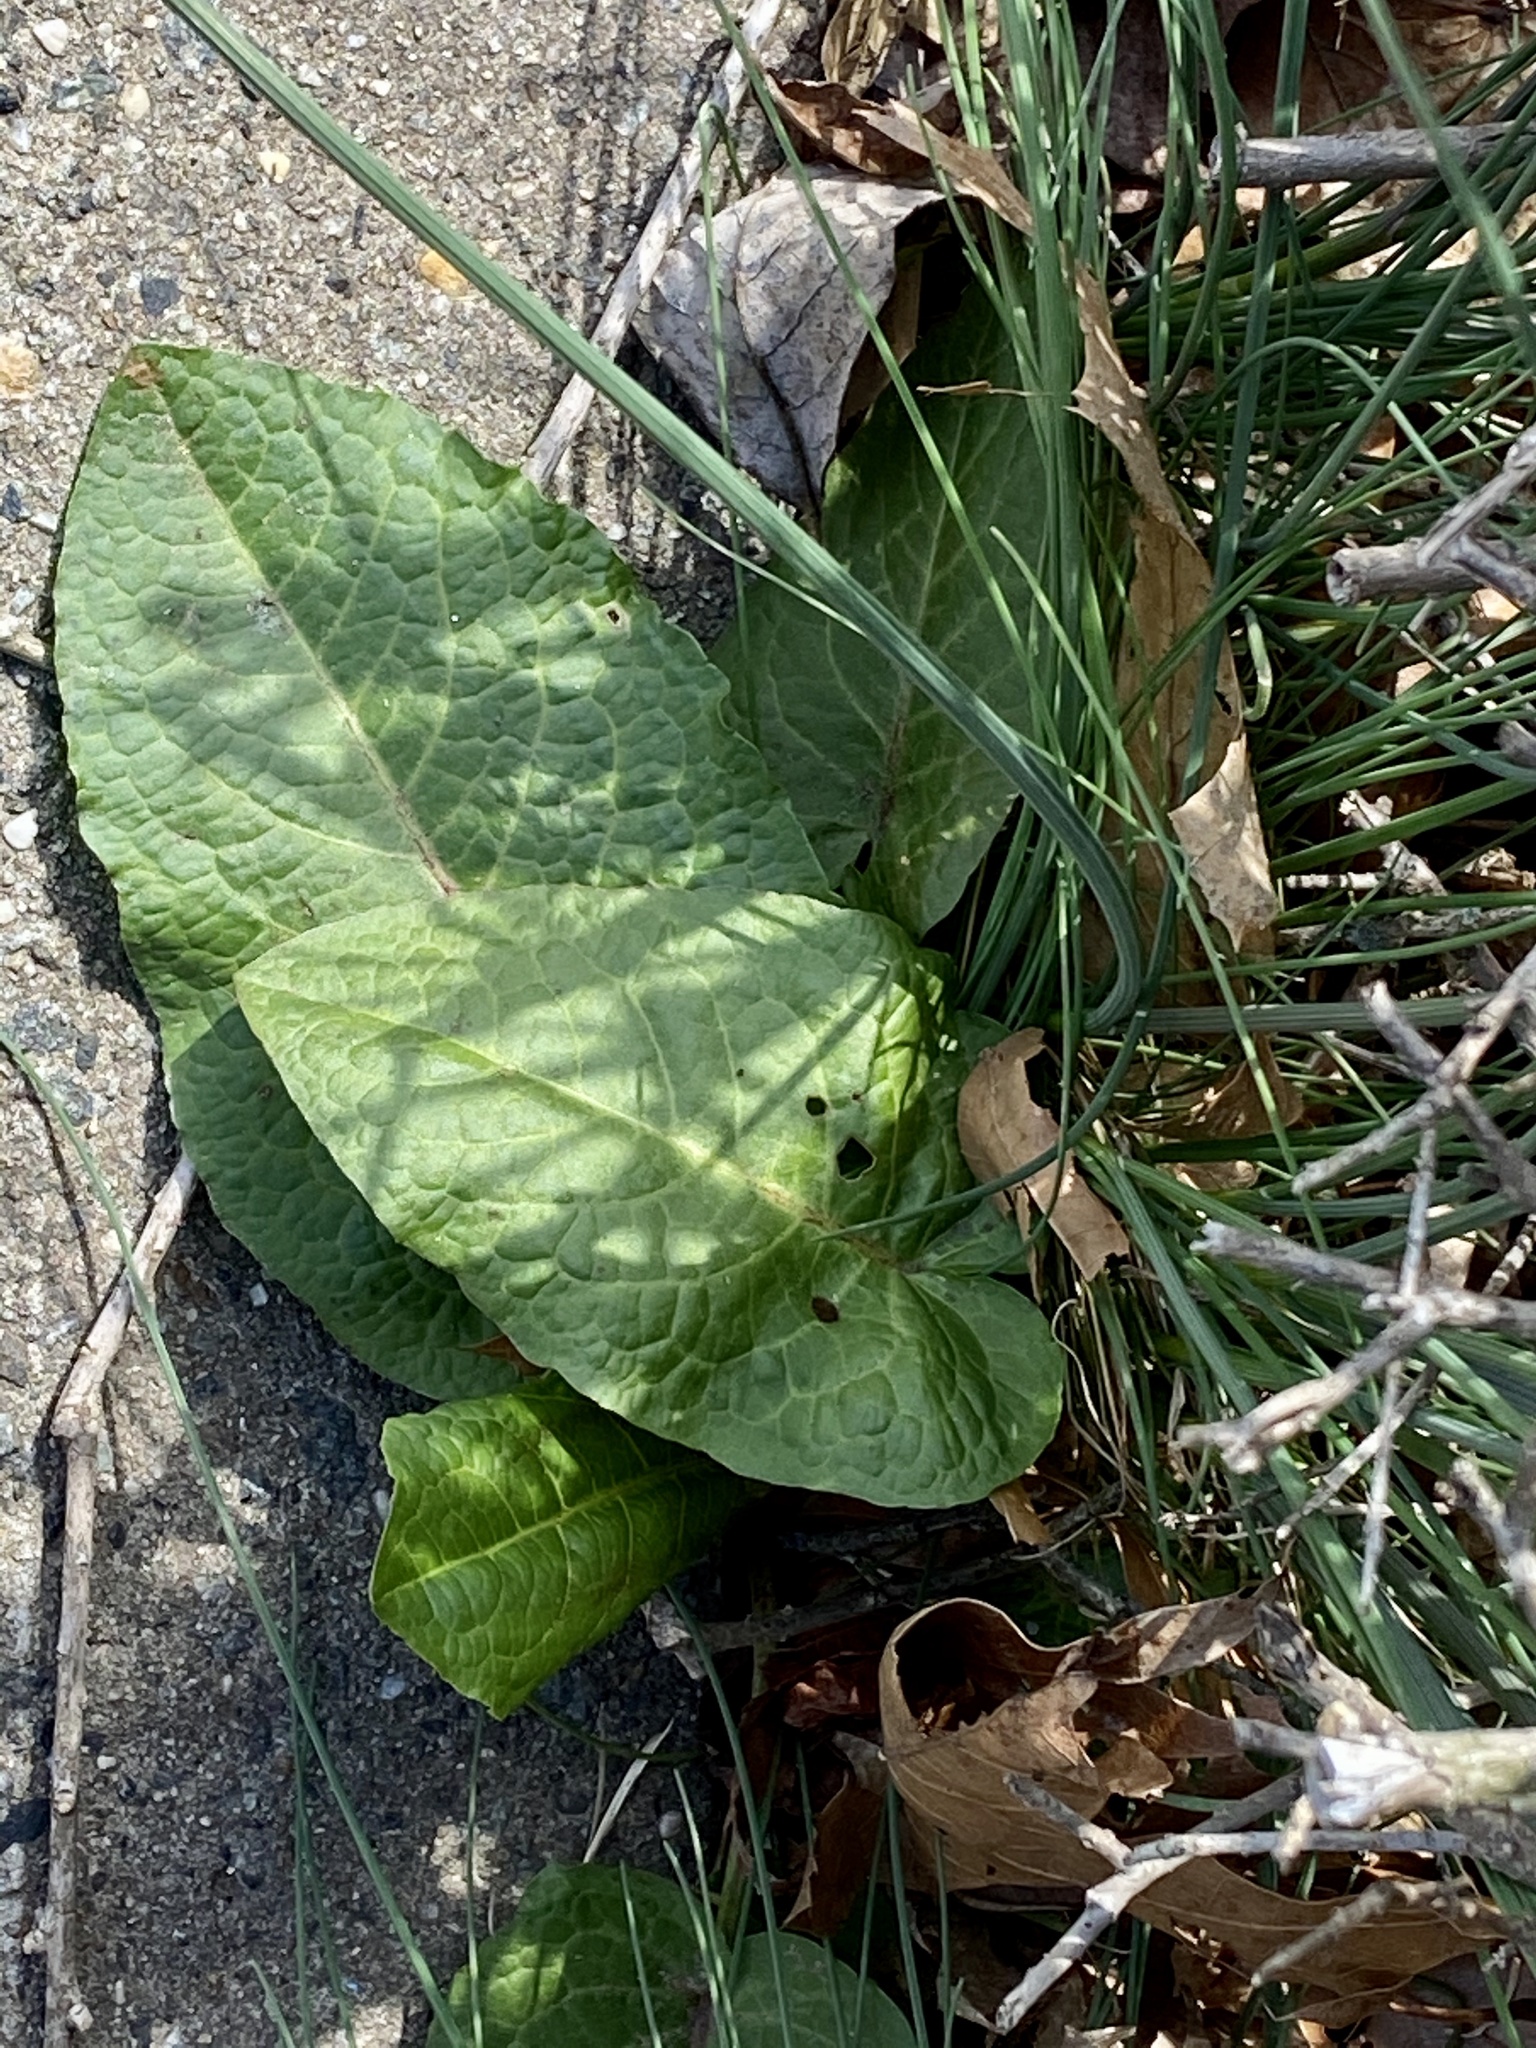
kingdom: Plantae
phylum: Tracheophyta
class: Magnoliopsida
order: Caryophyllales
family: Polygonaceae
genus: Rumex
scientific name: Rumex obtusifolius
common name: Bitter dock
